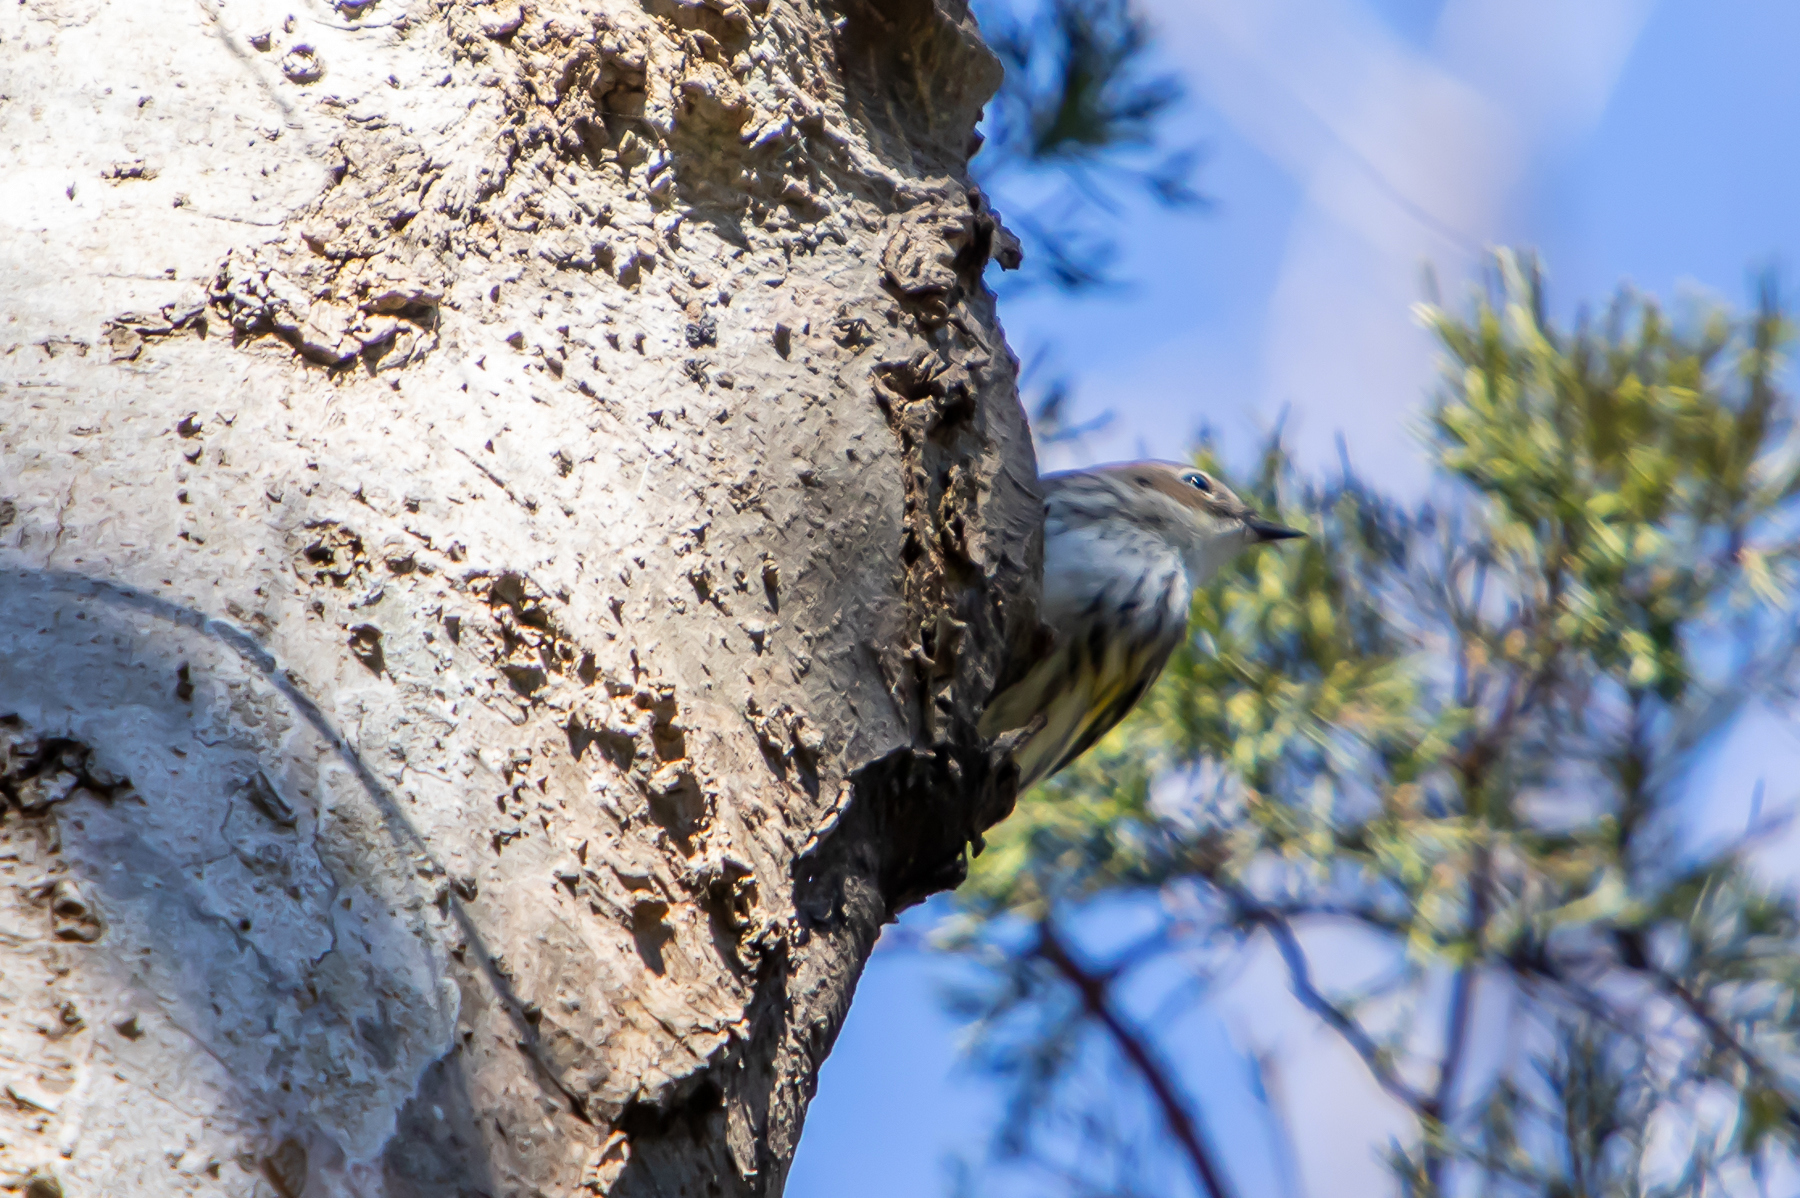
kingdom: Animalia
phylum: Chordata
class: Aves
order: Passeriformes
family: Parulidae
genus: Setophaga
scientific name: Setophaga coronata
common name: Myrtle warbler
